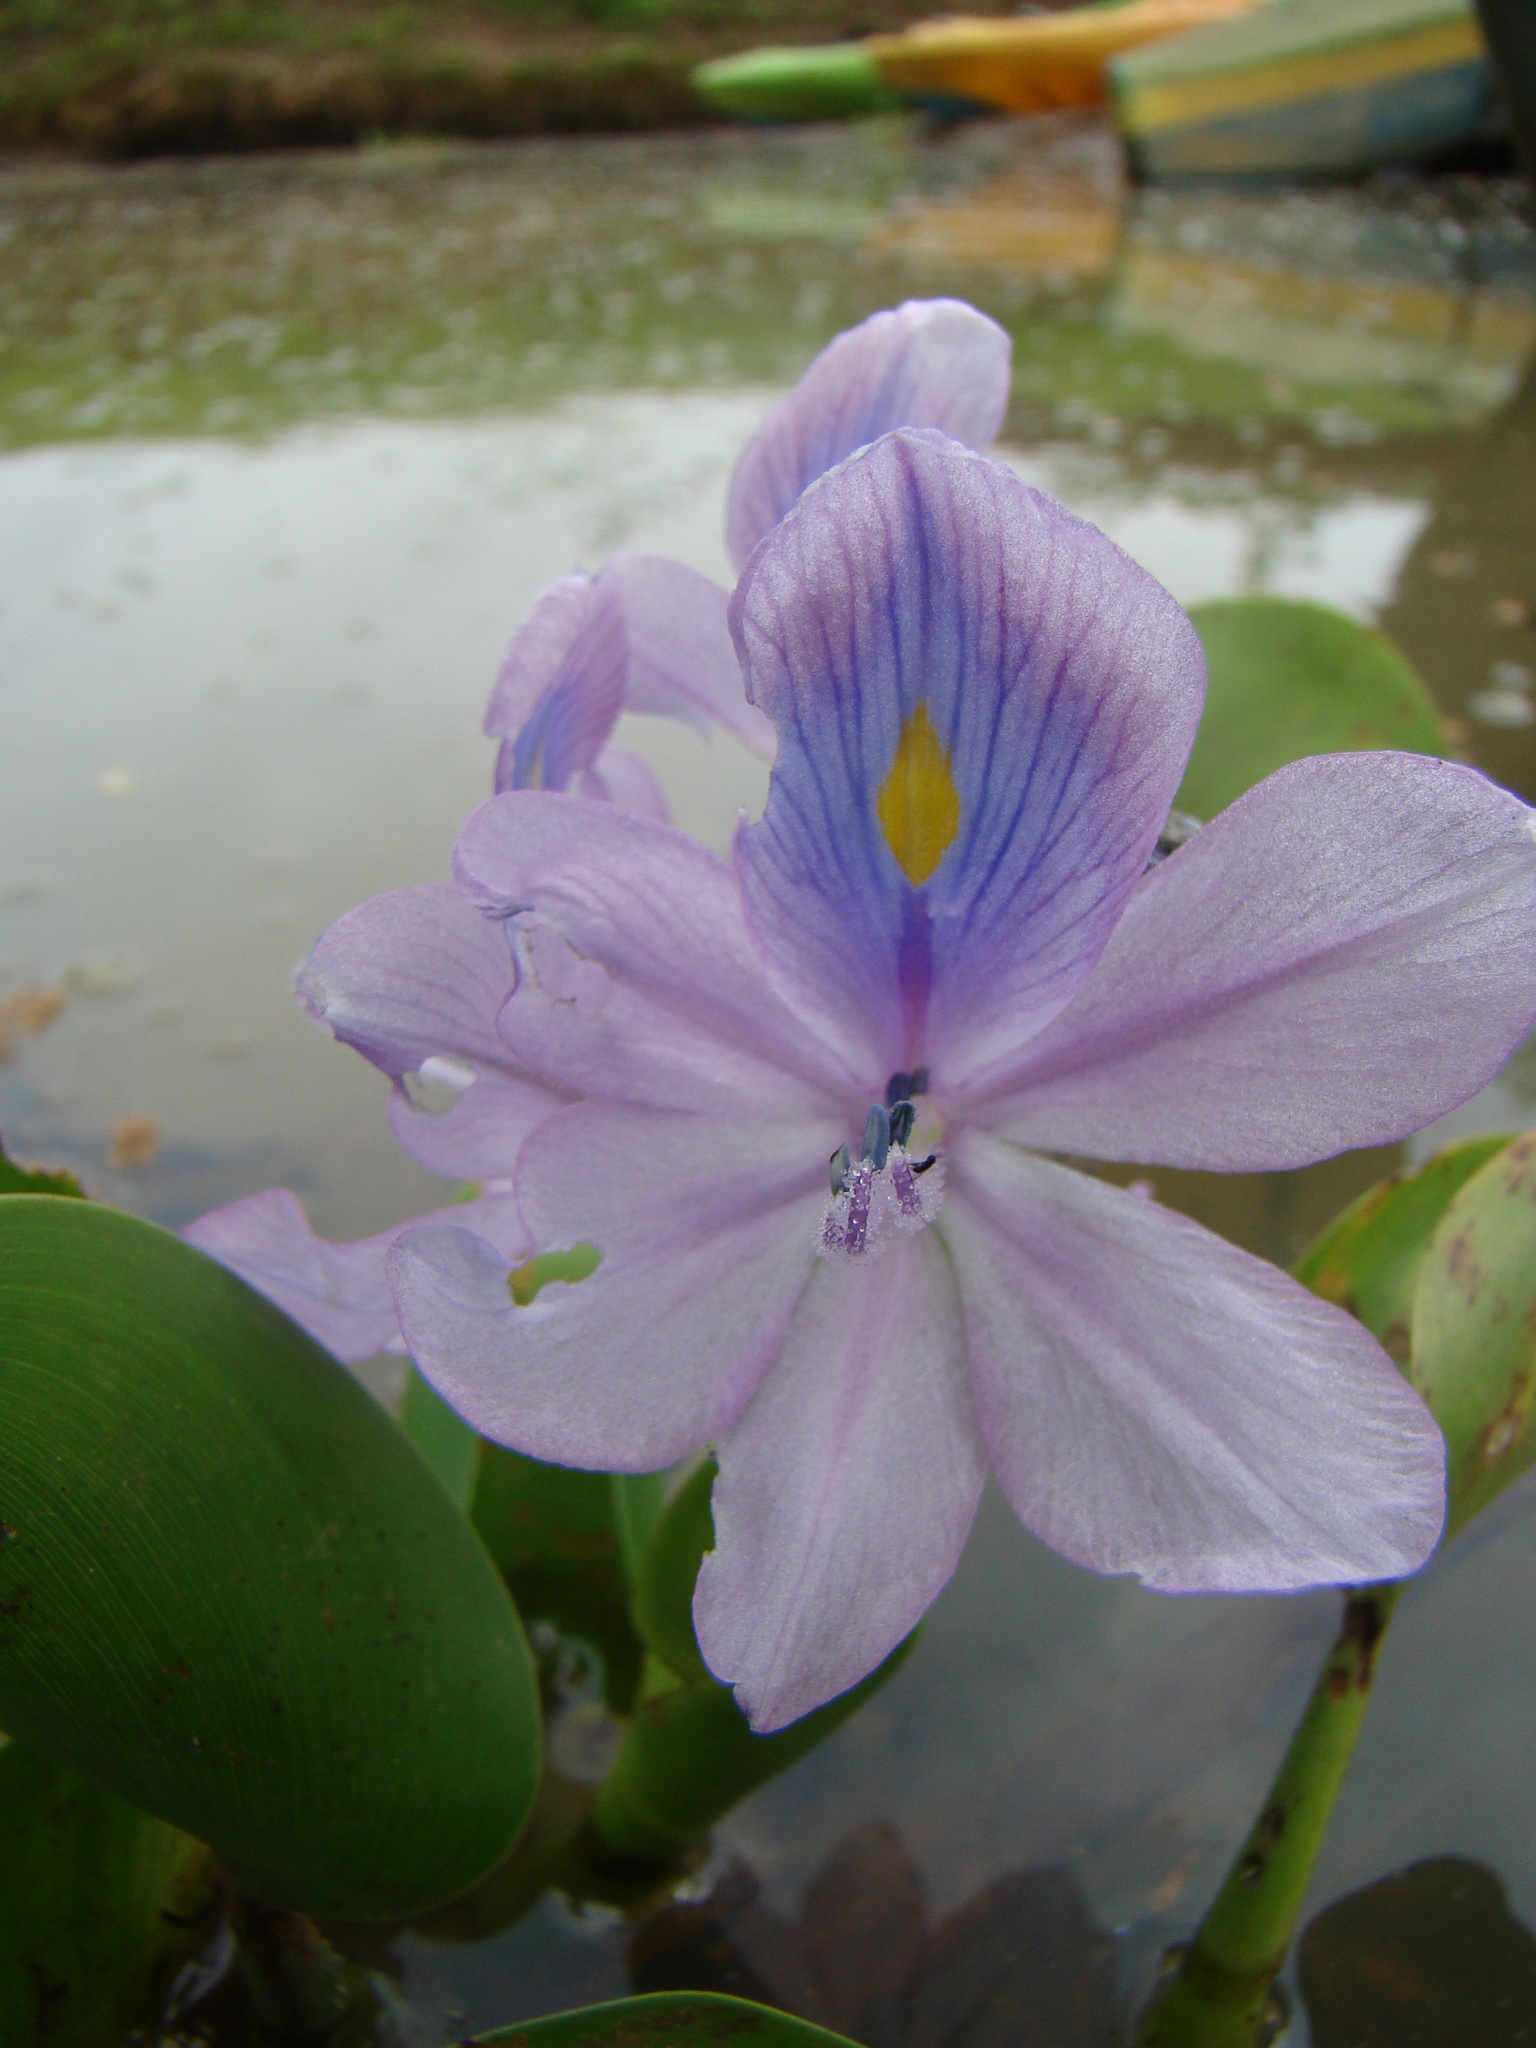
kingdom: Plantae
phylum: Tracheophyta
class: Liliopsida
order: Commelinales
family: Pontederiaceae
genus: Pontederia
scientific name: Pontederia crassipes
